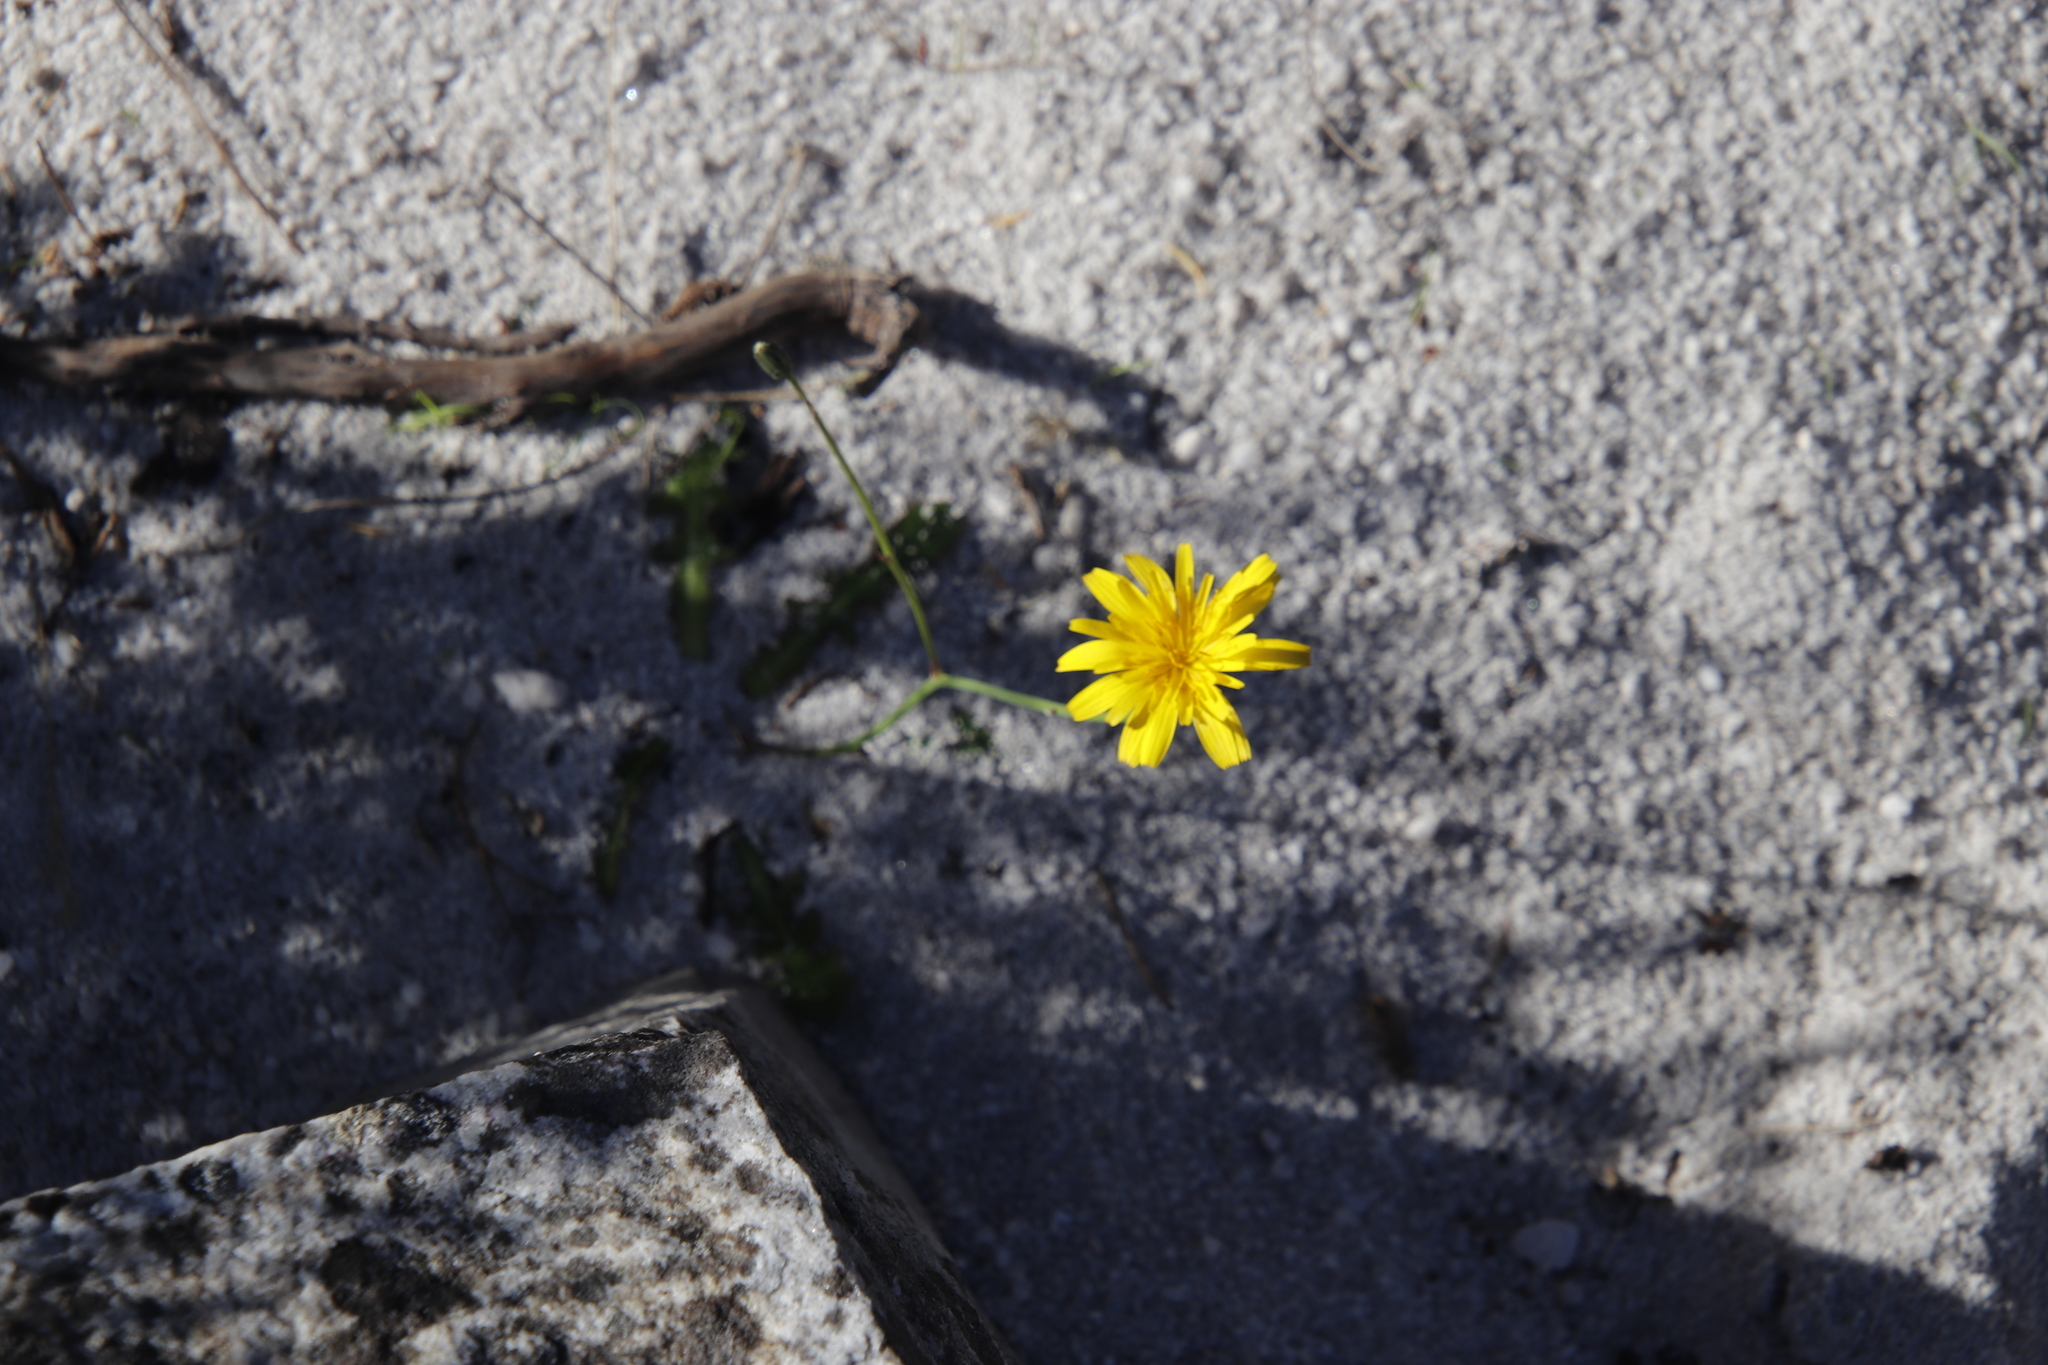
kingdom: Plantae
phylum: Tracheophyta
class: Magnoliopsida
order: Asterales
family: Asteraceae
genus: Hypochaeris
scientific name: Hypochaeris radicata
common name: Flatweed
